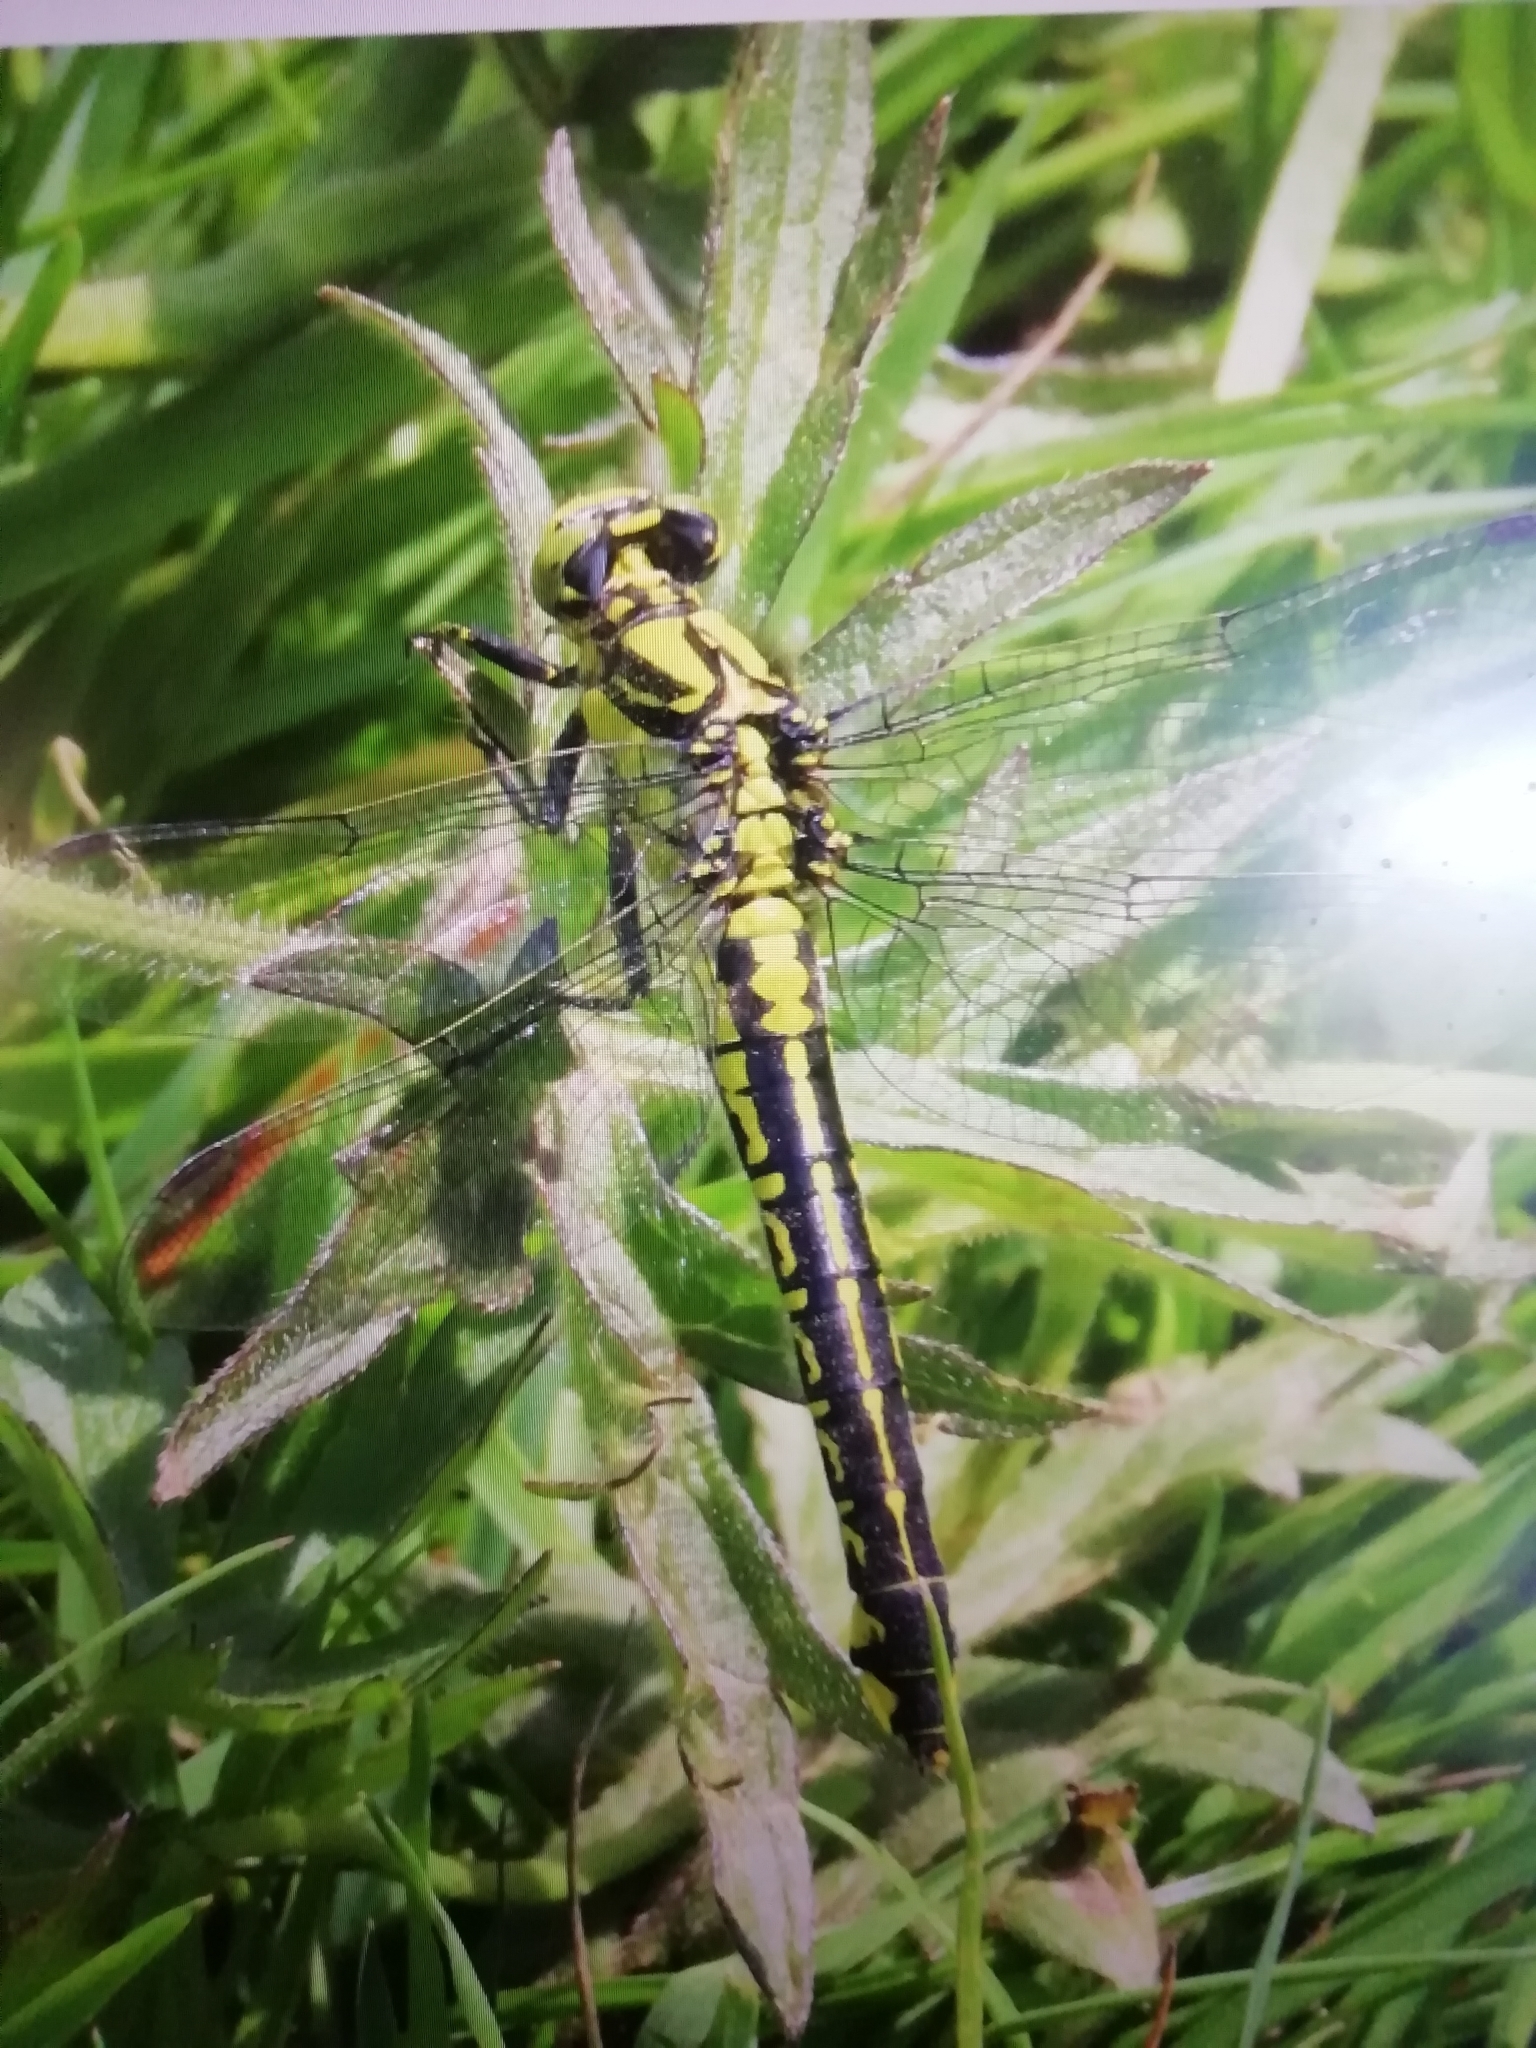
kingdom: Animalia
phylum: Arthropoda
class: Insecta
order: Odonata
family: Gomphidae
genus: Gomphus
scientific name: Gomphus vulgatissimus
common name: Club-tailed dragonfly
